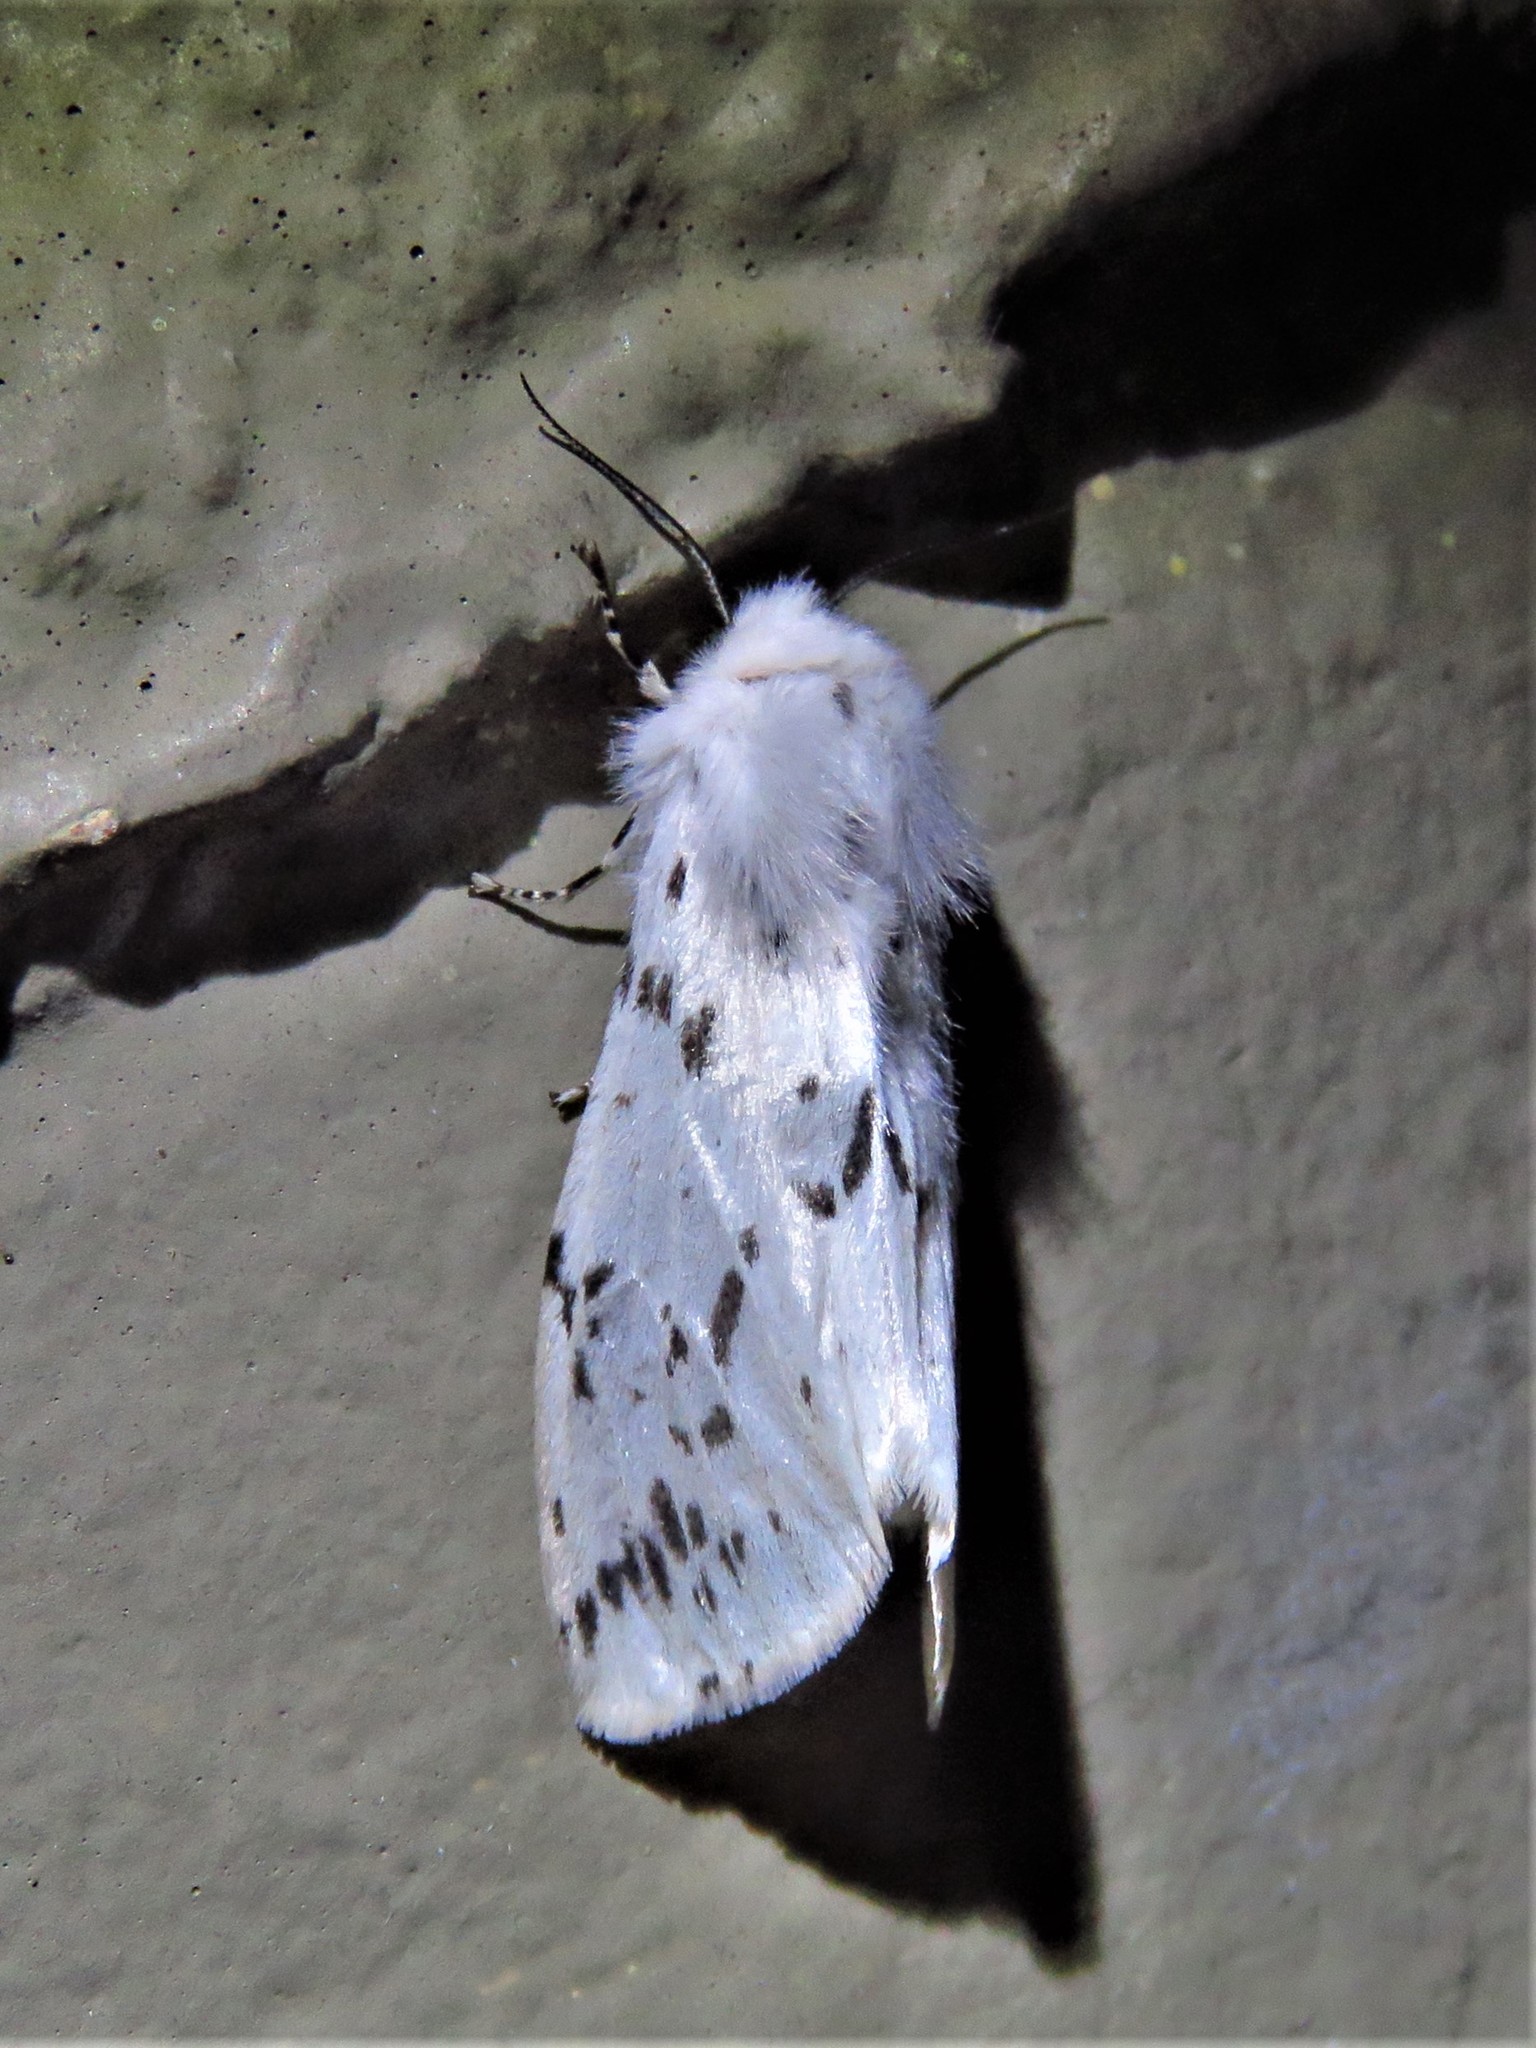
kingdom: Animalia
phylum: Arthropoda
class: Insecta
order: Lepidoptera
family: Erebidae
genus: Hyphantria
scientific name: Hyphantria cunea
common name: American white moth
